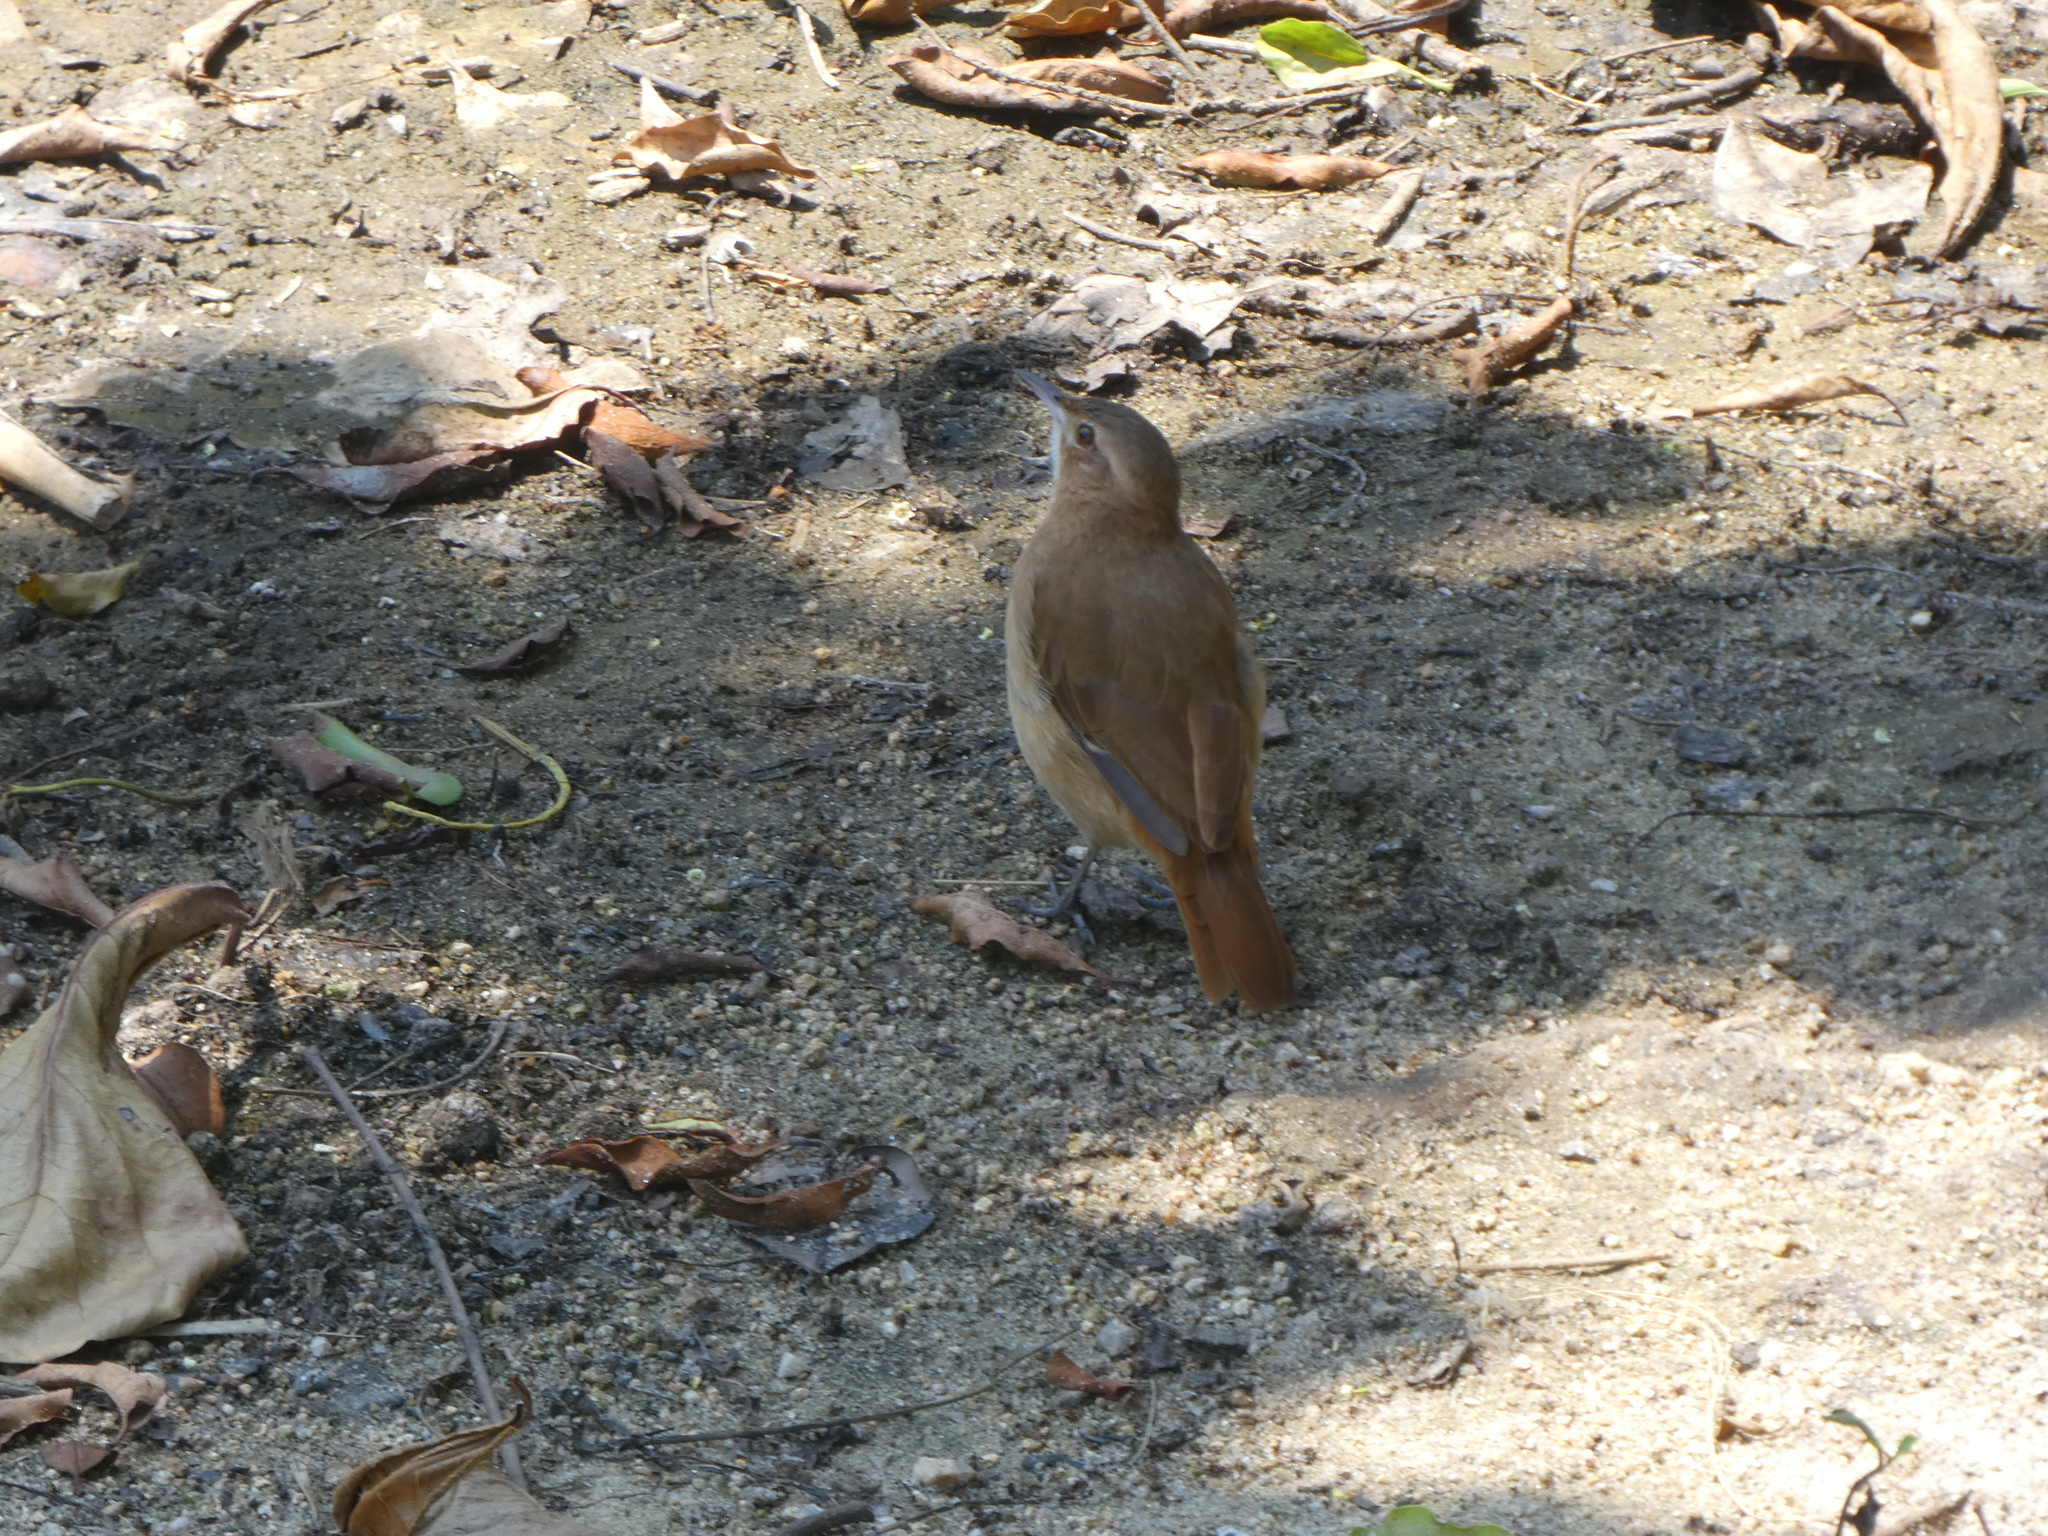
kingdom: Animalia
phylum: Chordata
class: Aves
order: Passeriformes
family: Furnariidae
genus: Furnarius
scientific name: Furnarius rufus
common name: Rufous hornero
